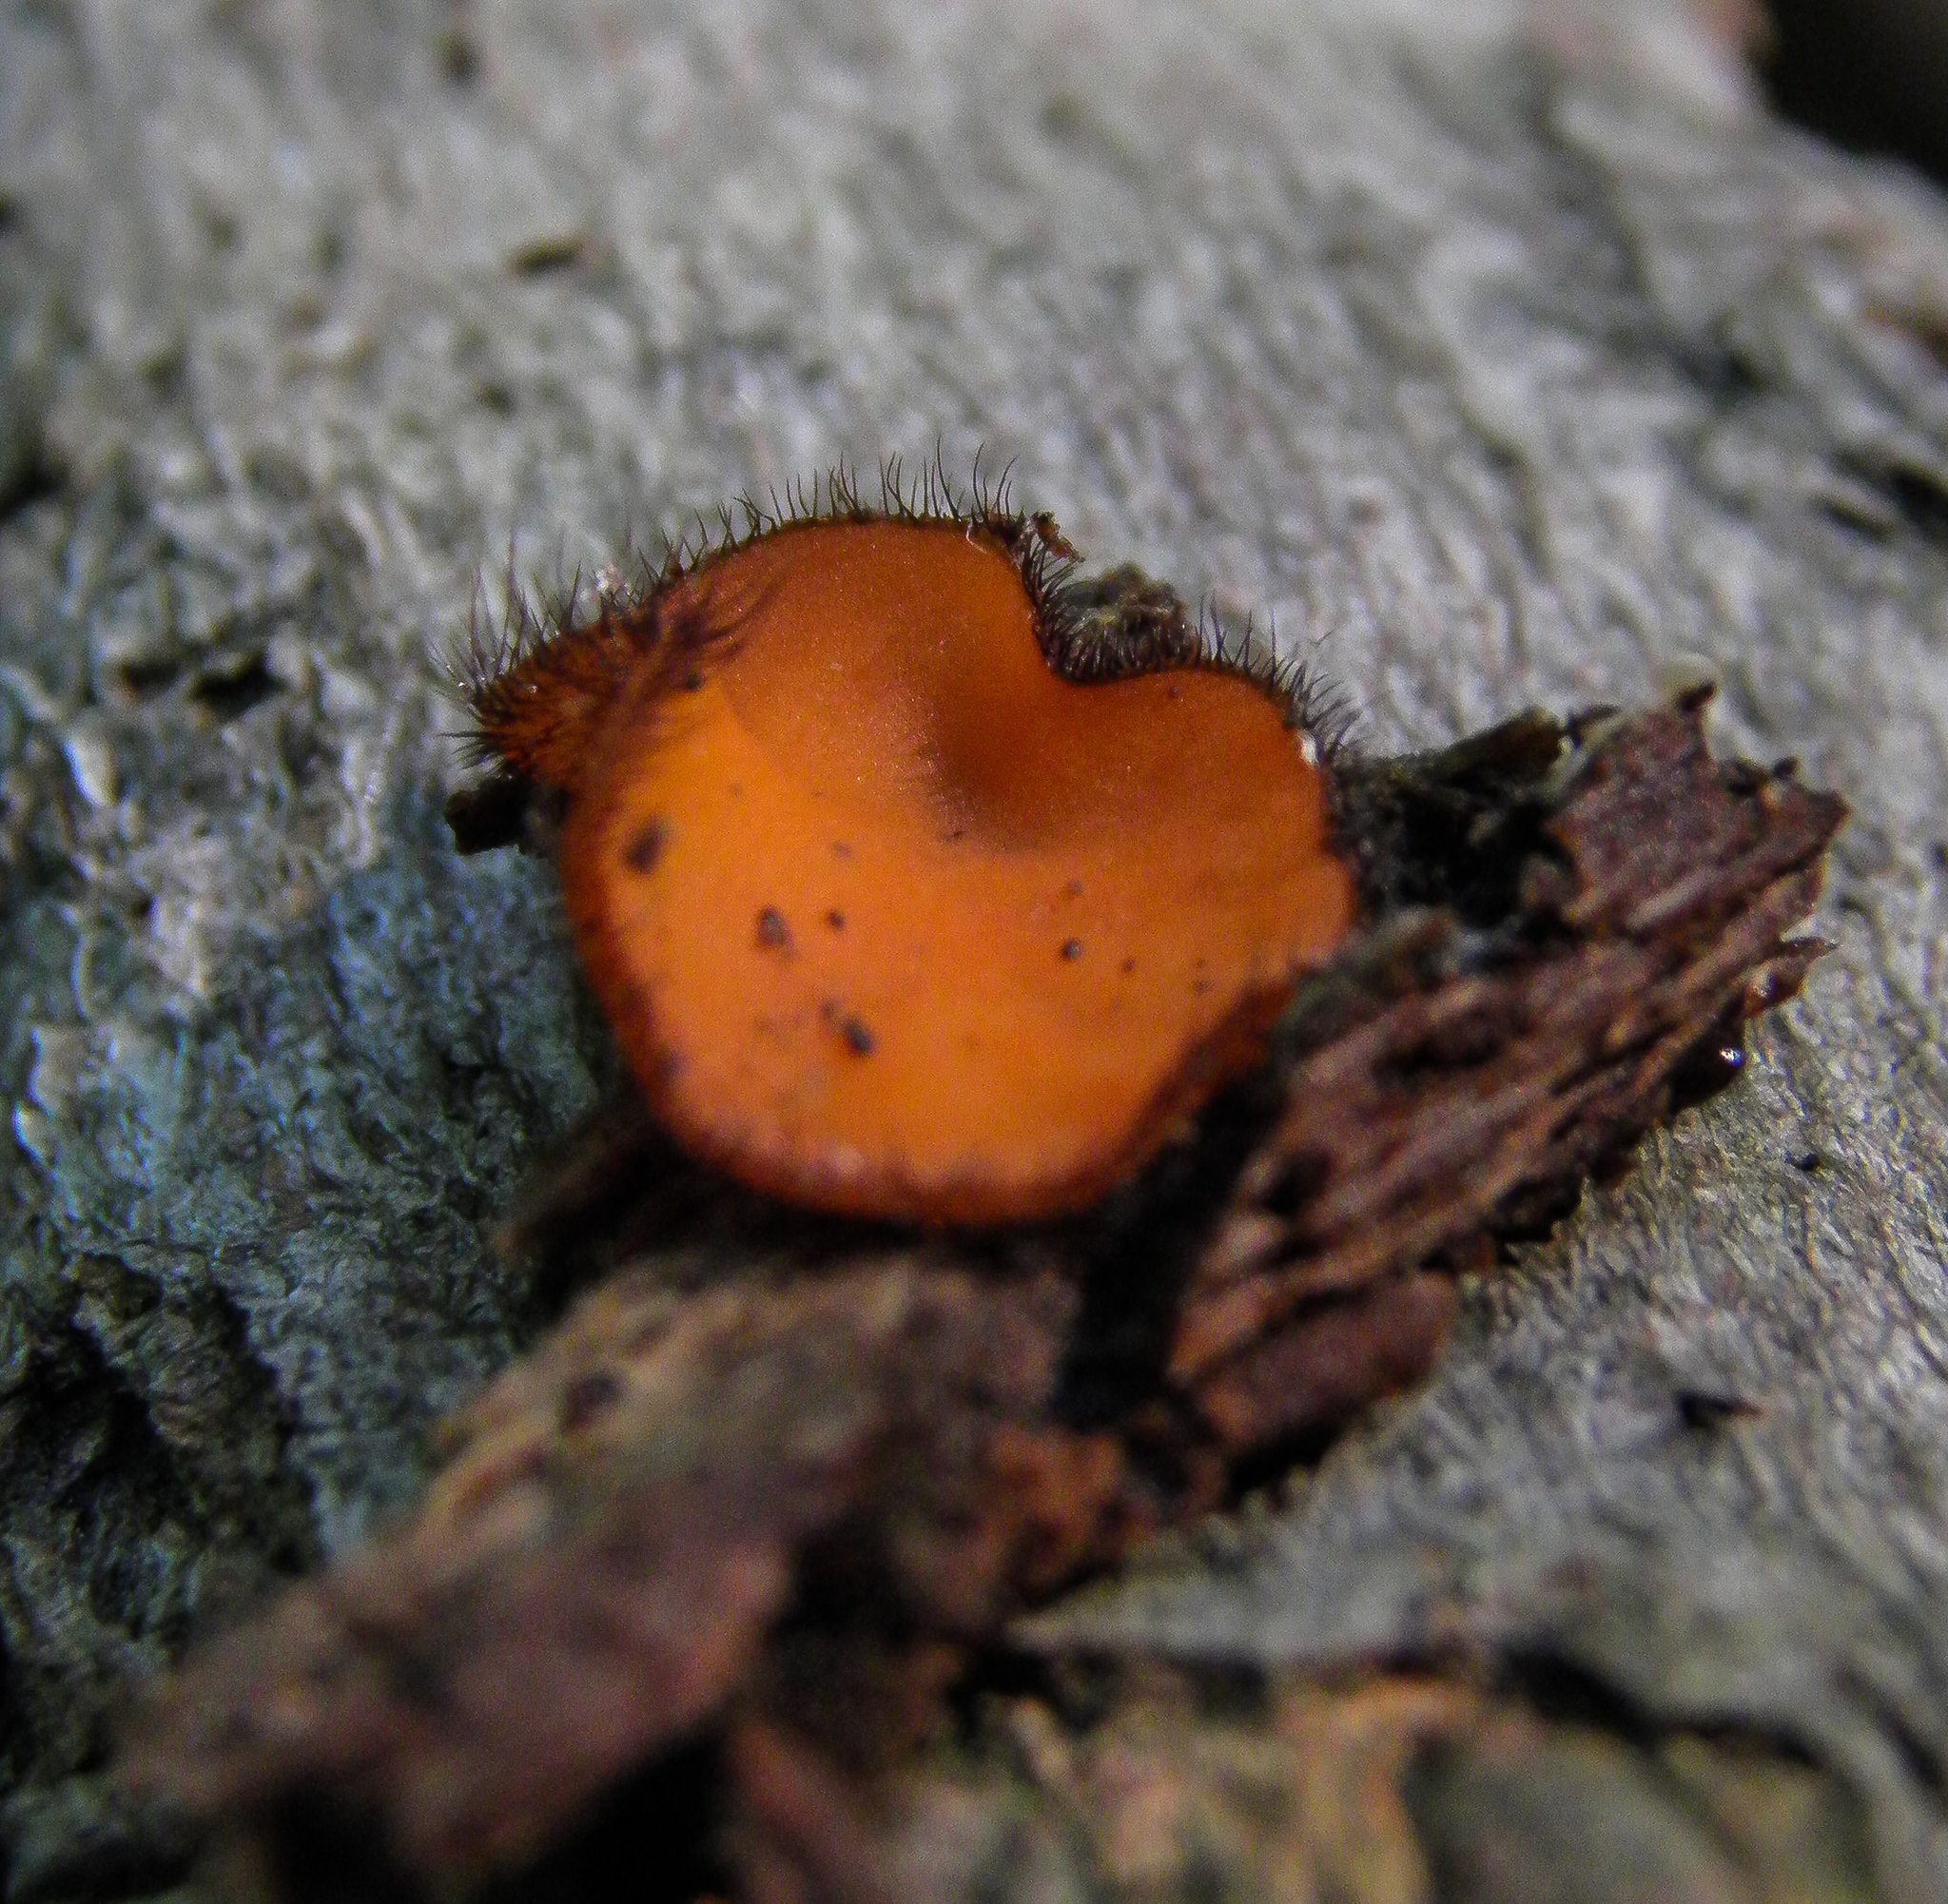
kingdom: Fungi
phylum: Ascomycota
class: Pezizomycetes
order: Pezizales
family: Pyronemataceae
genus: Scutellinia
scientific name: Scutellinia scutellata
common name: Common eyelash
